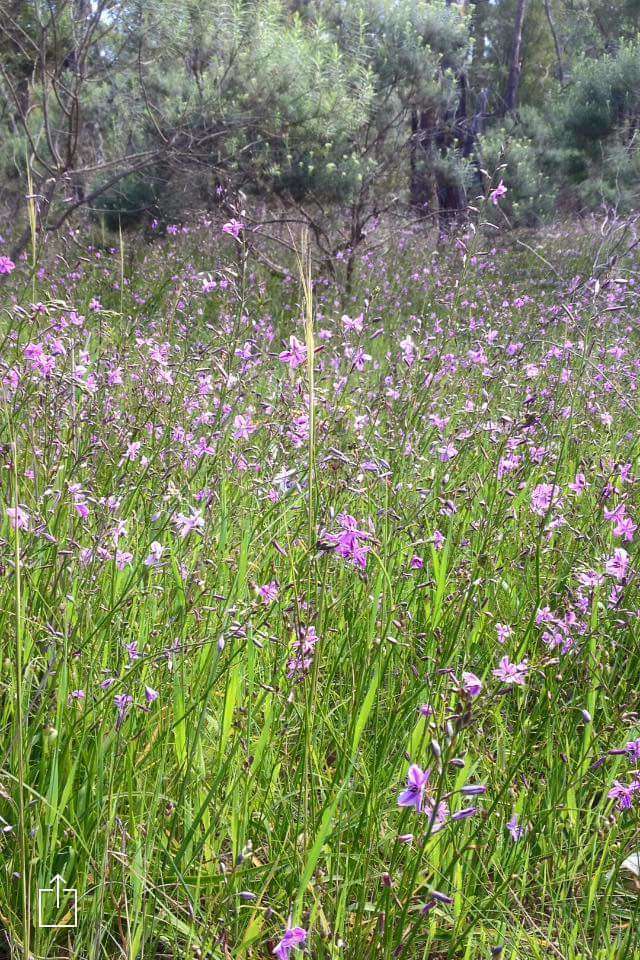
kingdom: Plantae
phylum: Tracheophyta
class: Liliopsida
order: Asparagales
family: Asparagaceae
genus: Arthropodium
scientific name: Arthropodium strictum
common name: Chocolate-lily
